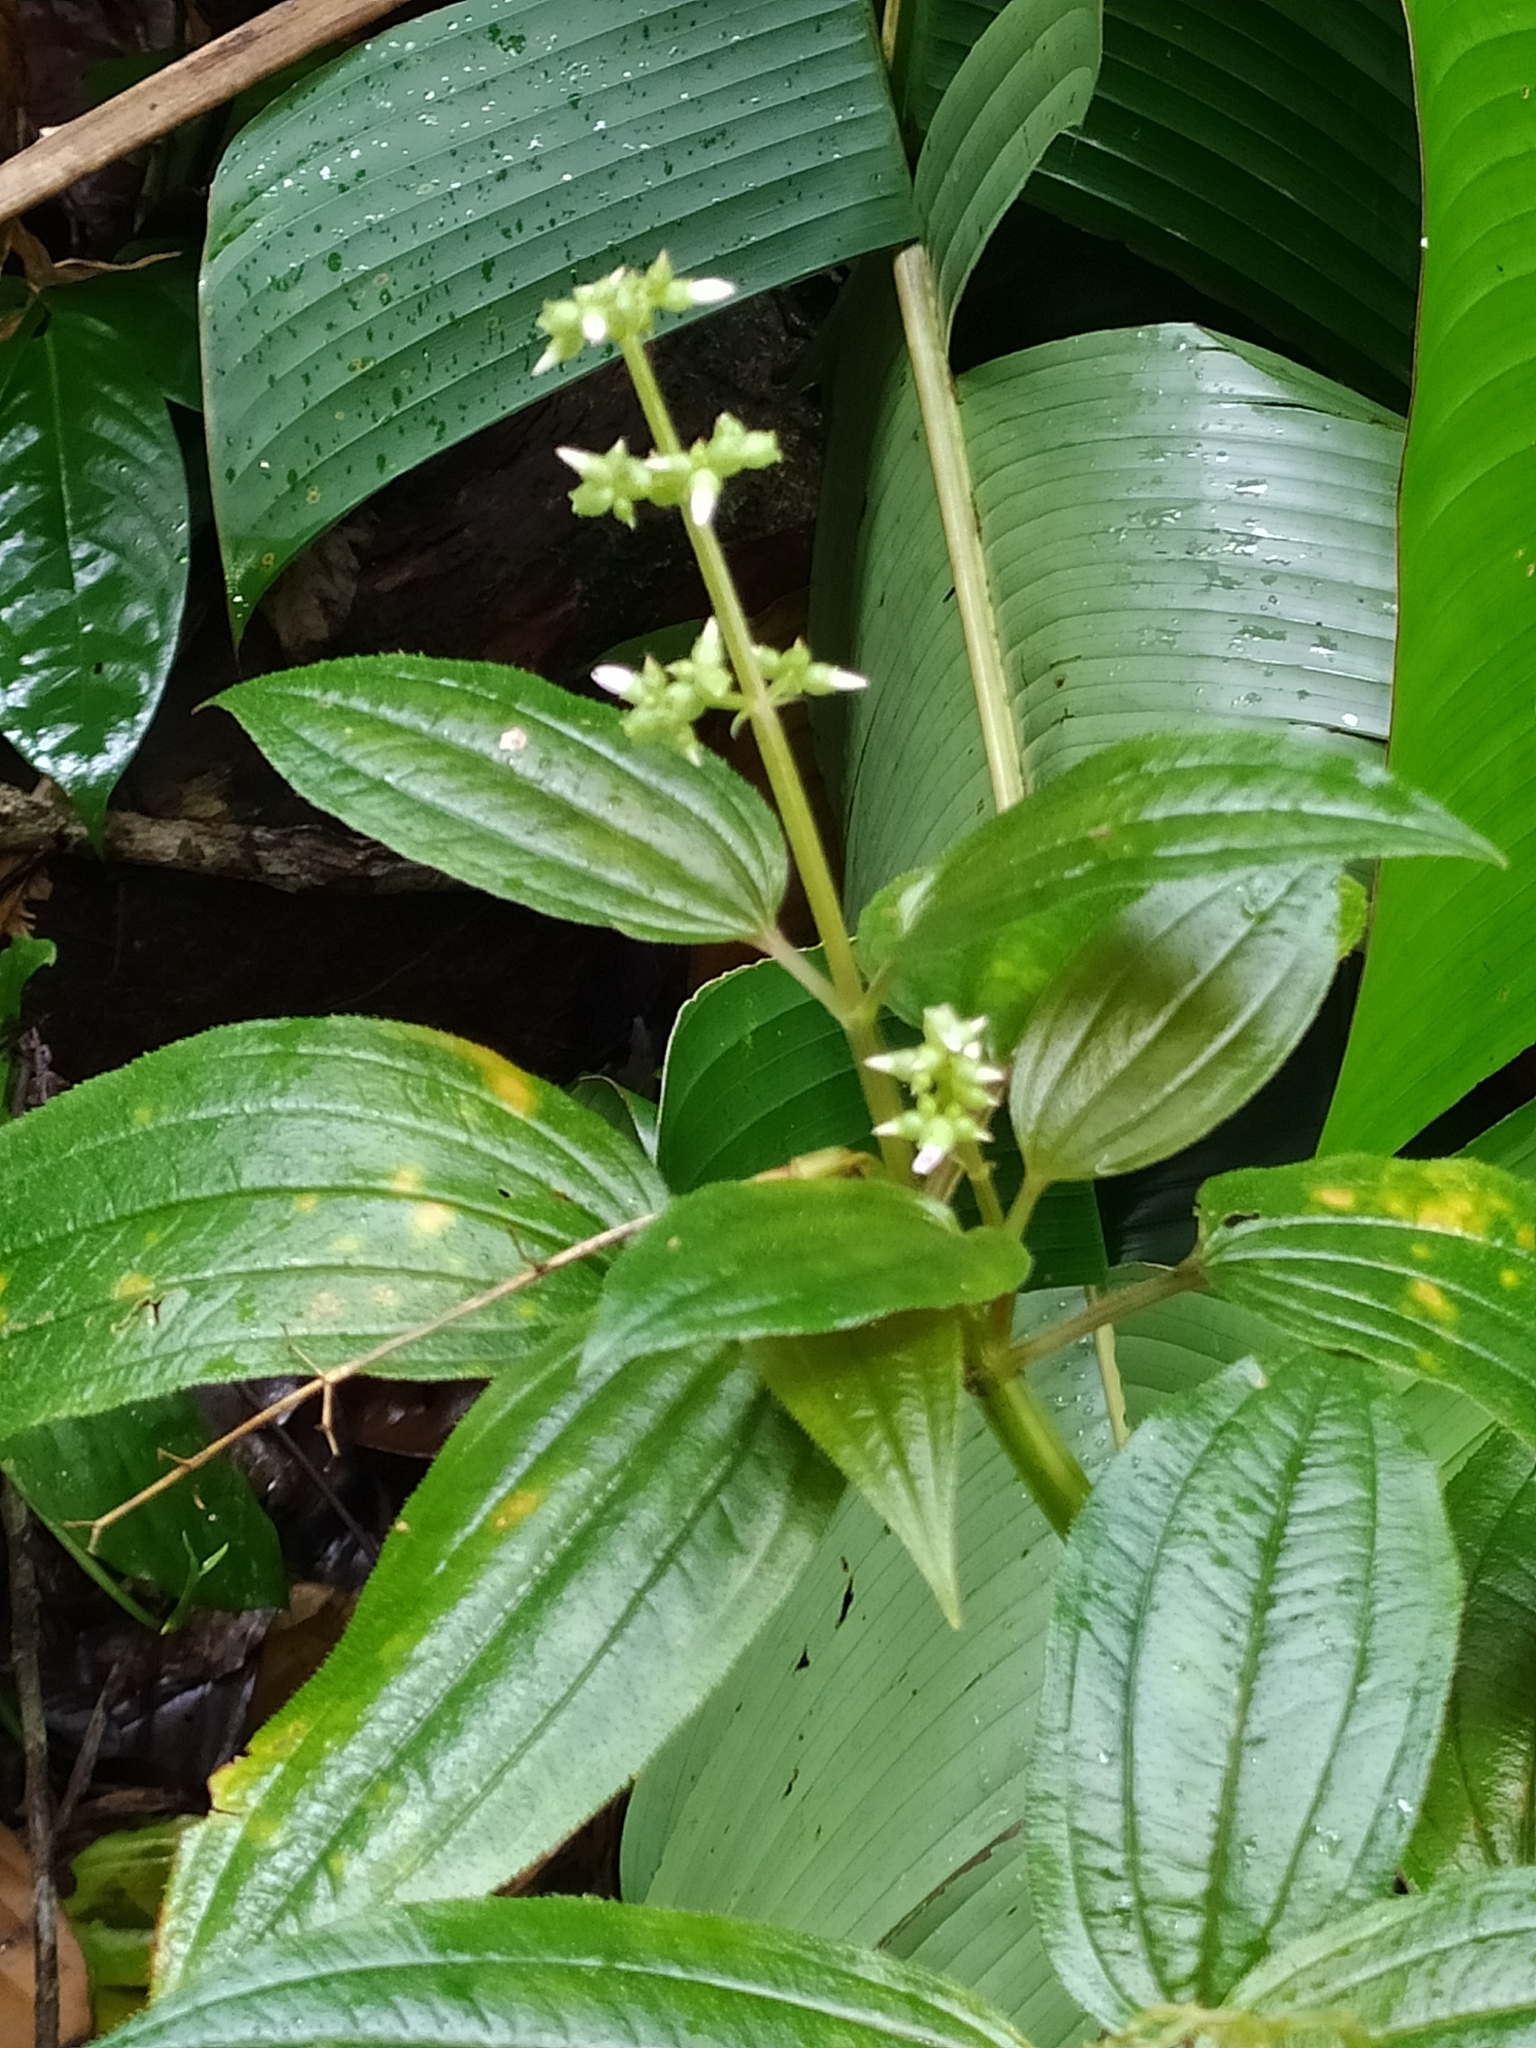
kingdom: Plantae
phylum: Tracheophyta
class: Magnoliopsida
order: Myrtales
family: Melastomataceae
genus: Aciotis
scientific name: Aciotis purpurascens
